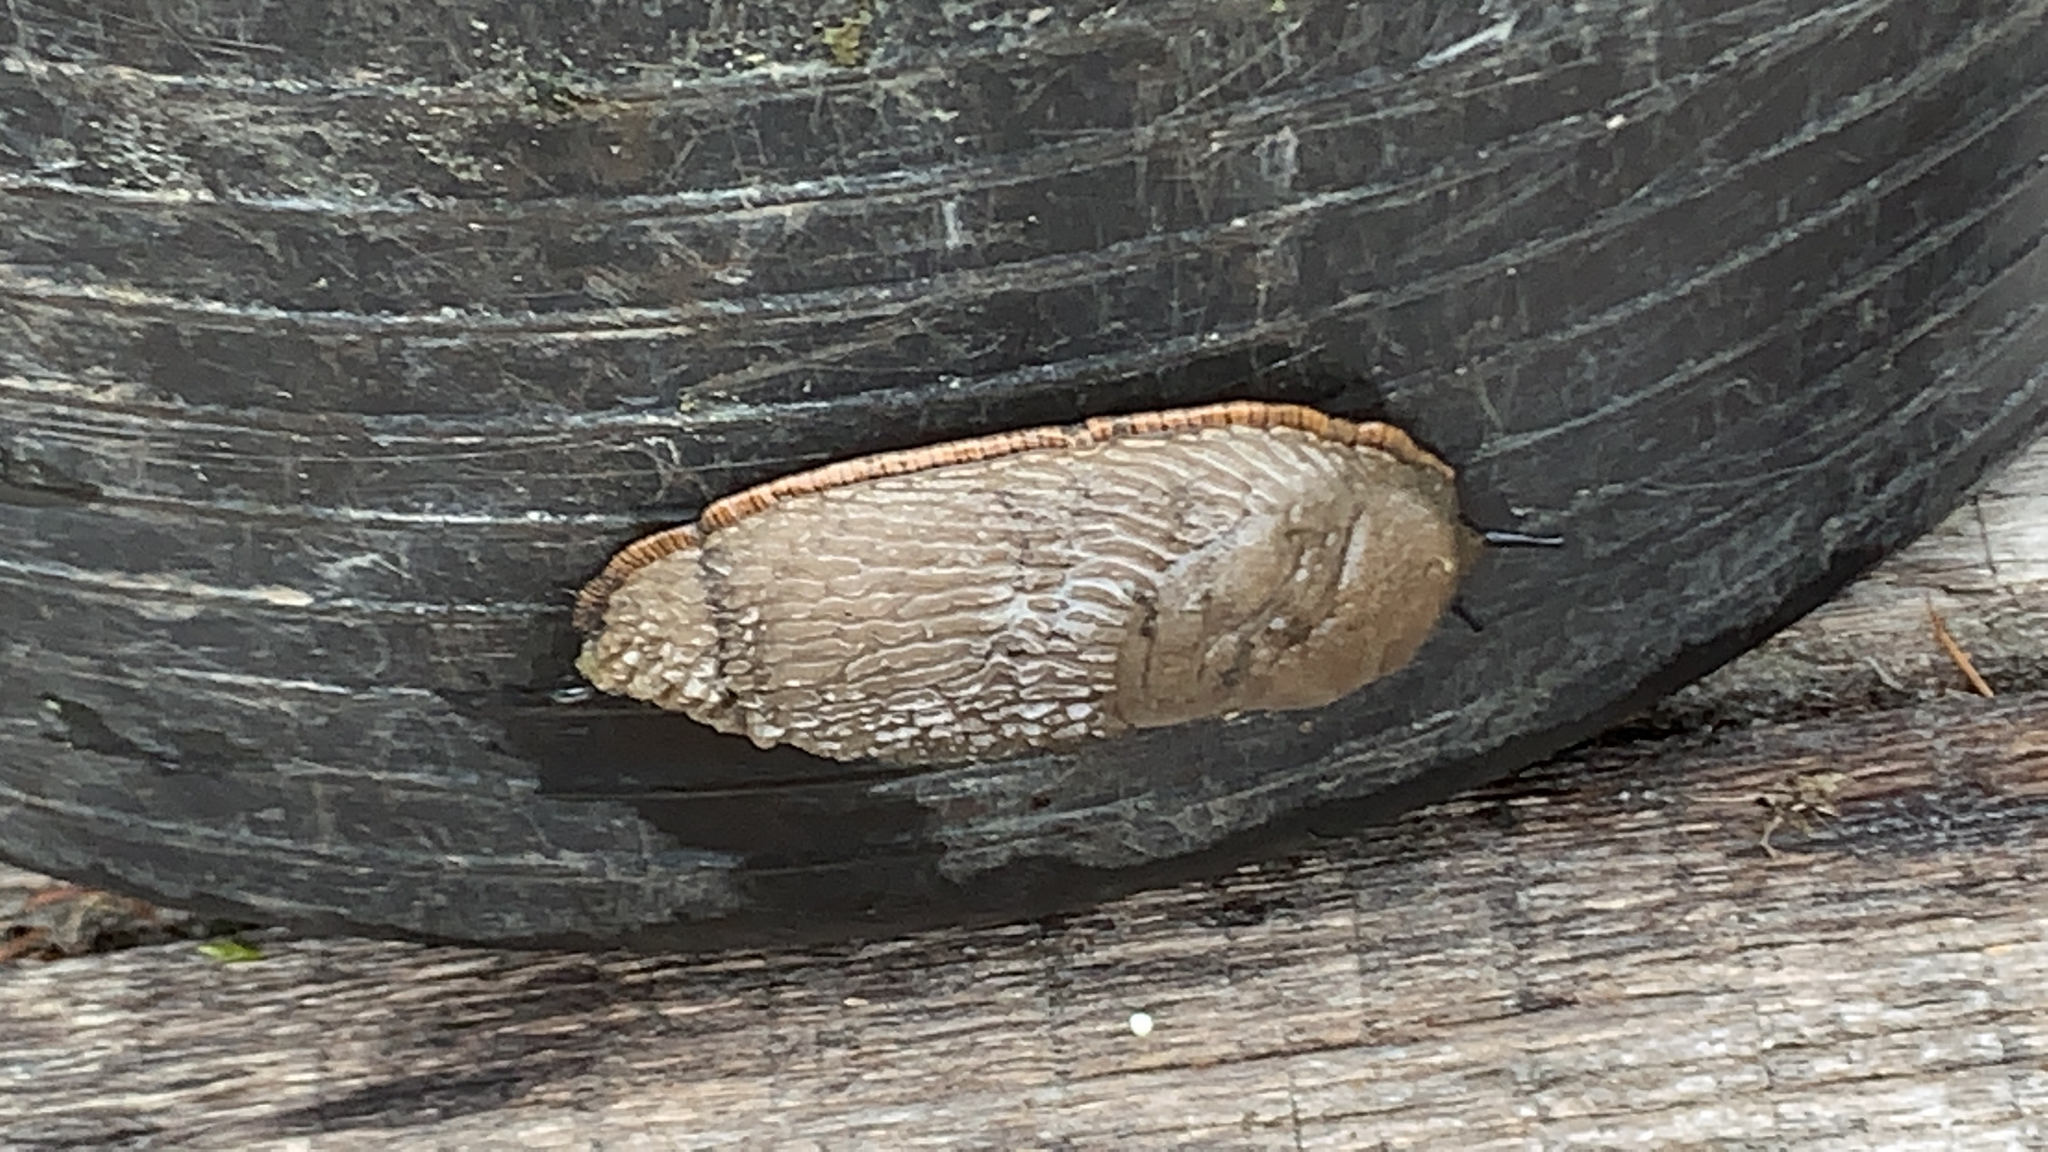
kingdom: Animalia
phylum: Mollusca
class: Gastropoda
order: Stylommatophora
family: Arionidae
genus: Arion
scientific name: Arion
